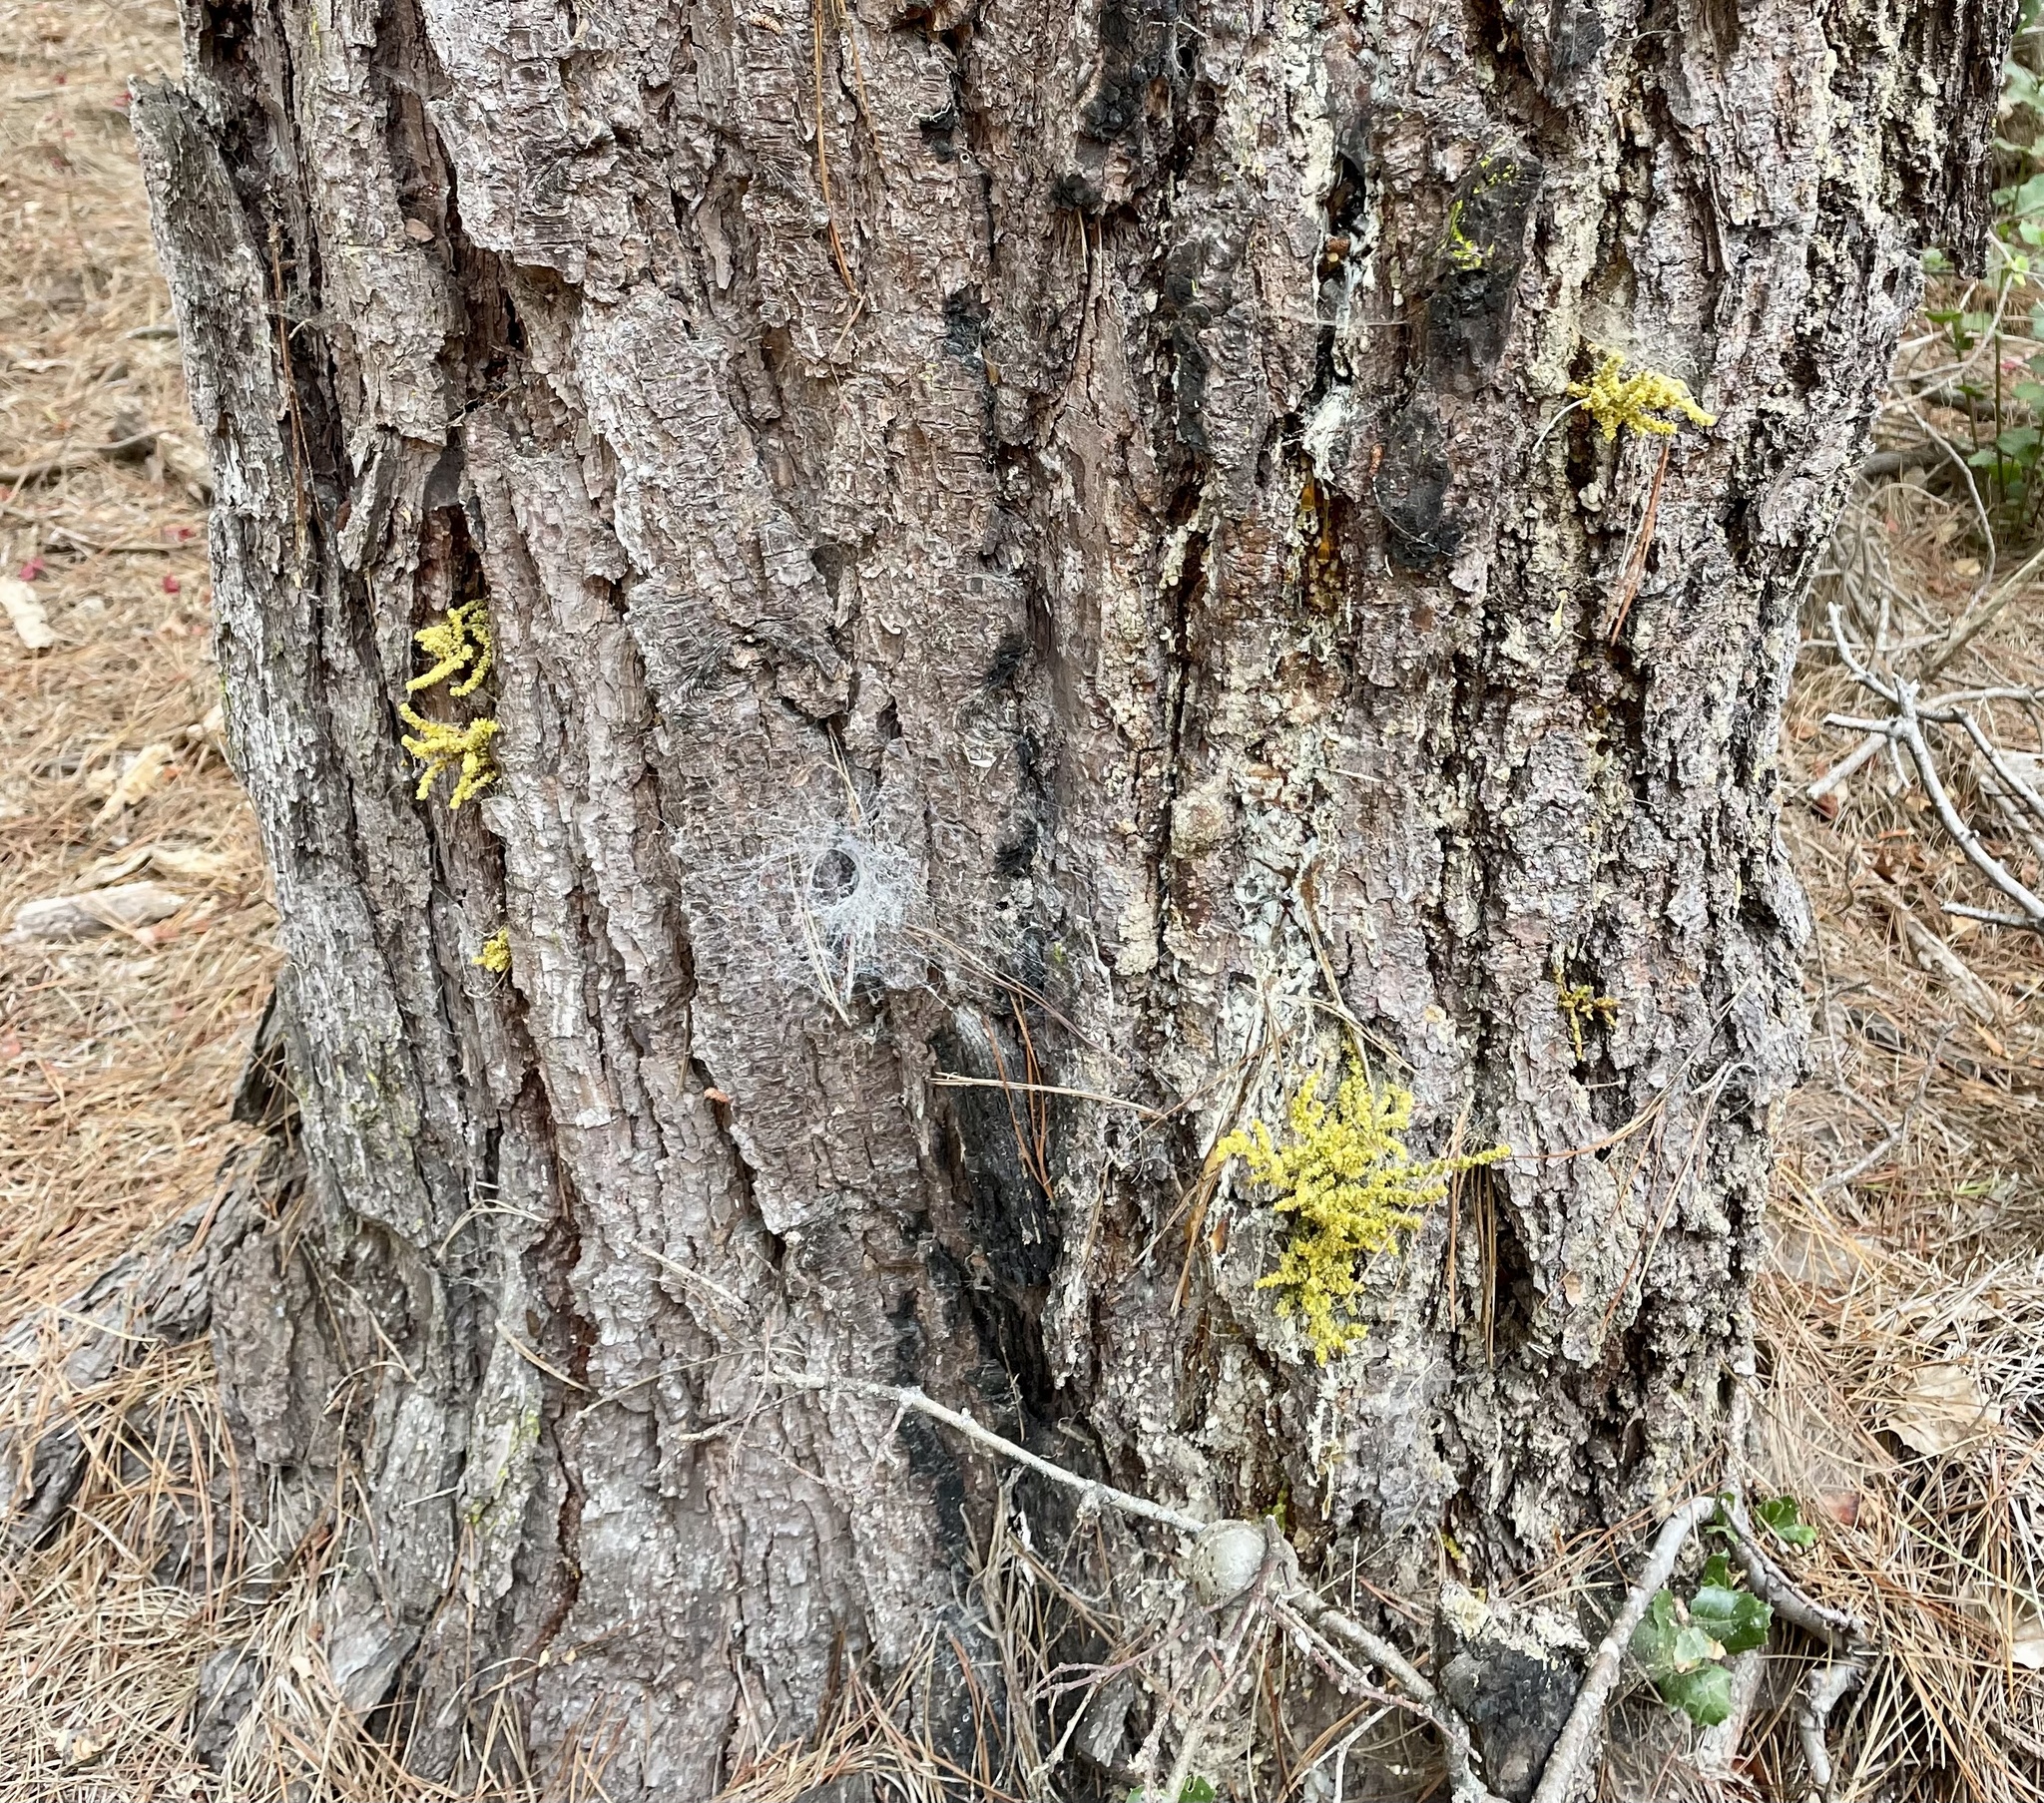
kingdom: Plantae
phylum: Tracheophyta
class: Magnoliopsida
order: Santalales
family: Viscaceae
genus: Arceuthobium
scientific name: Arceuthobium campylopodum
